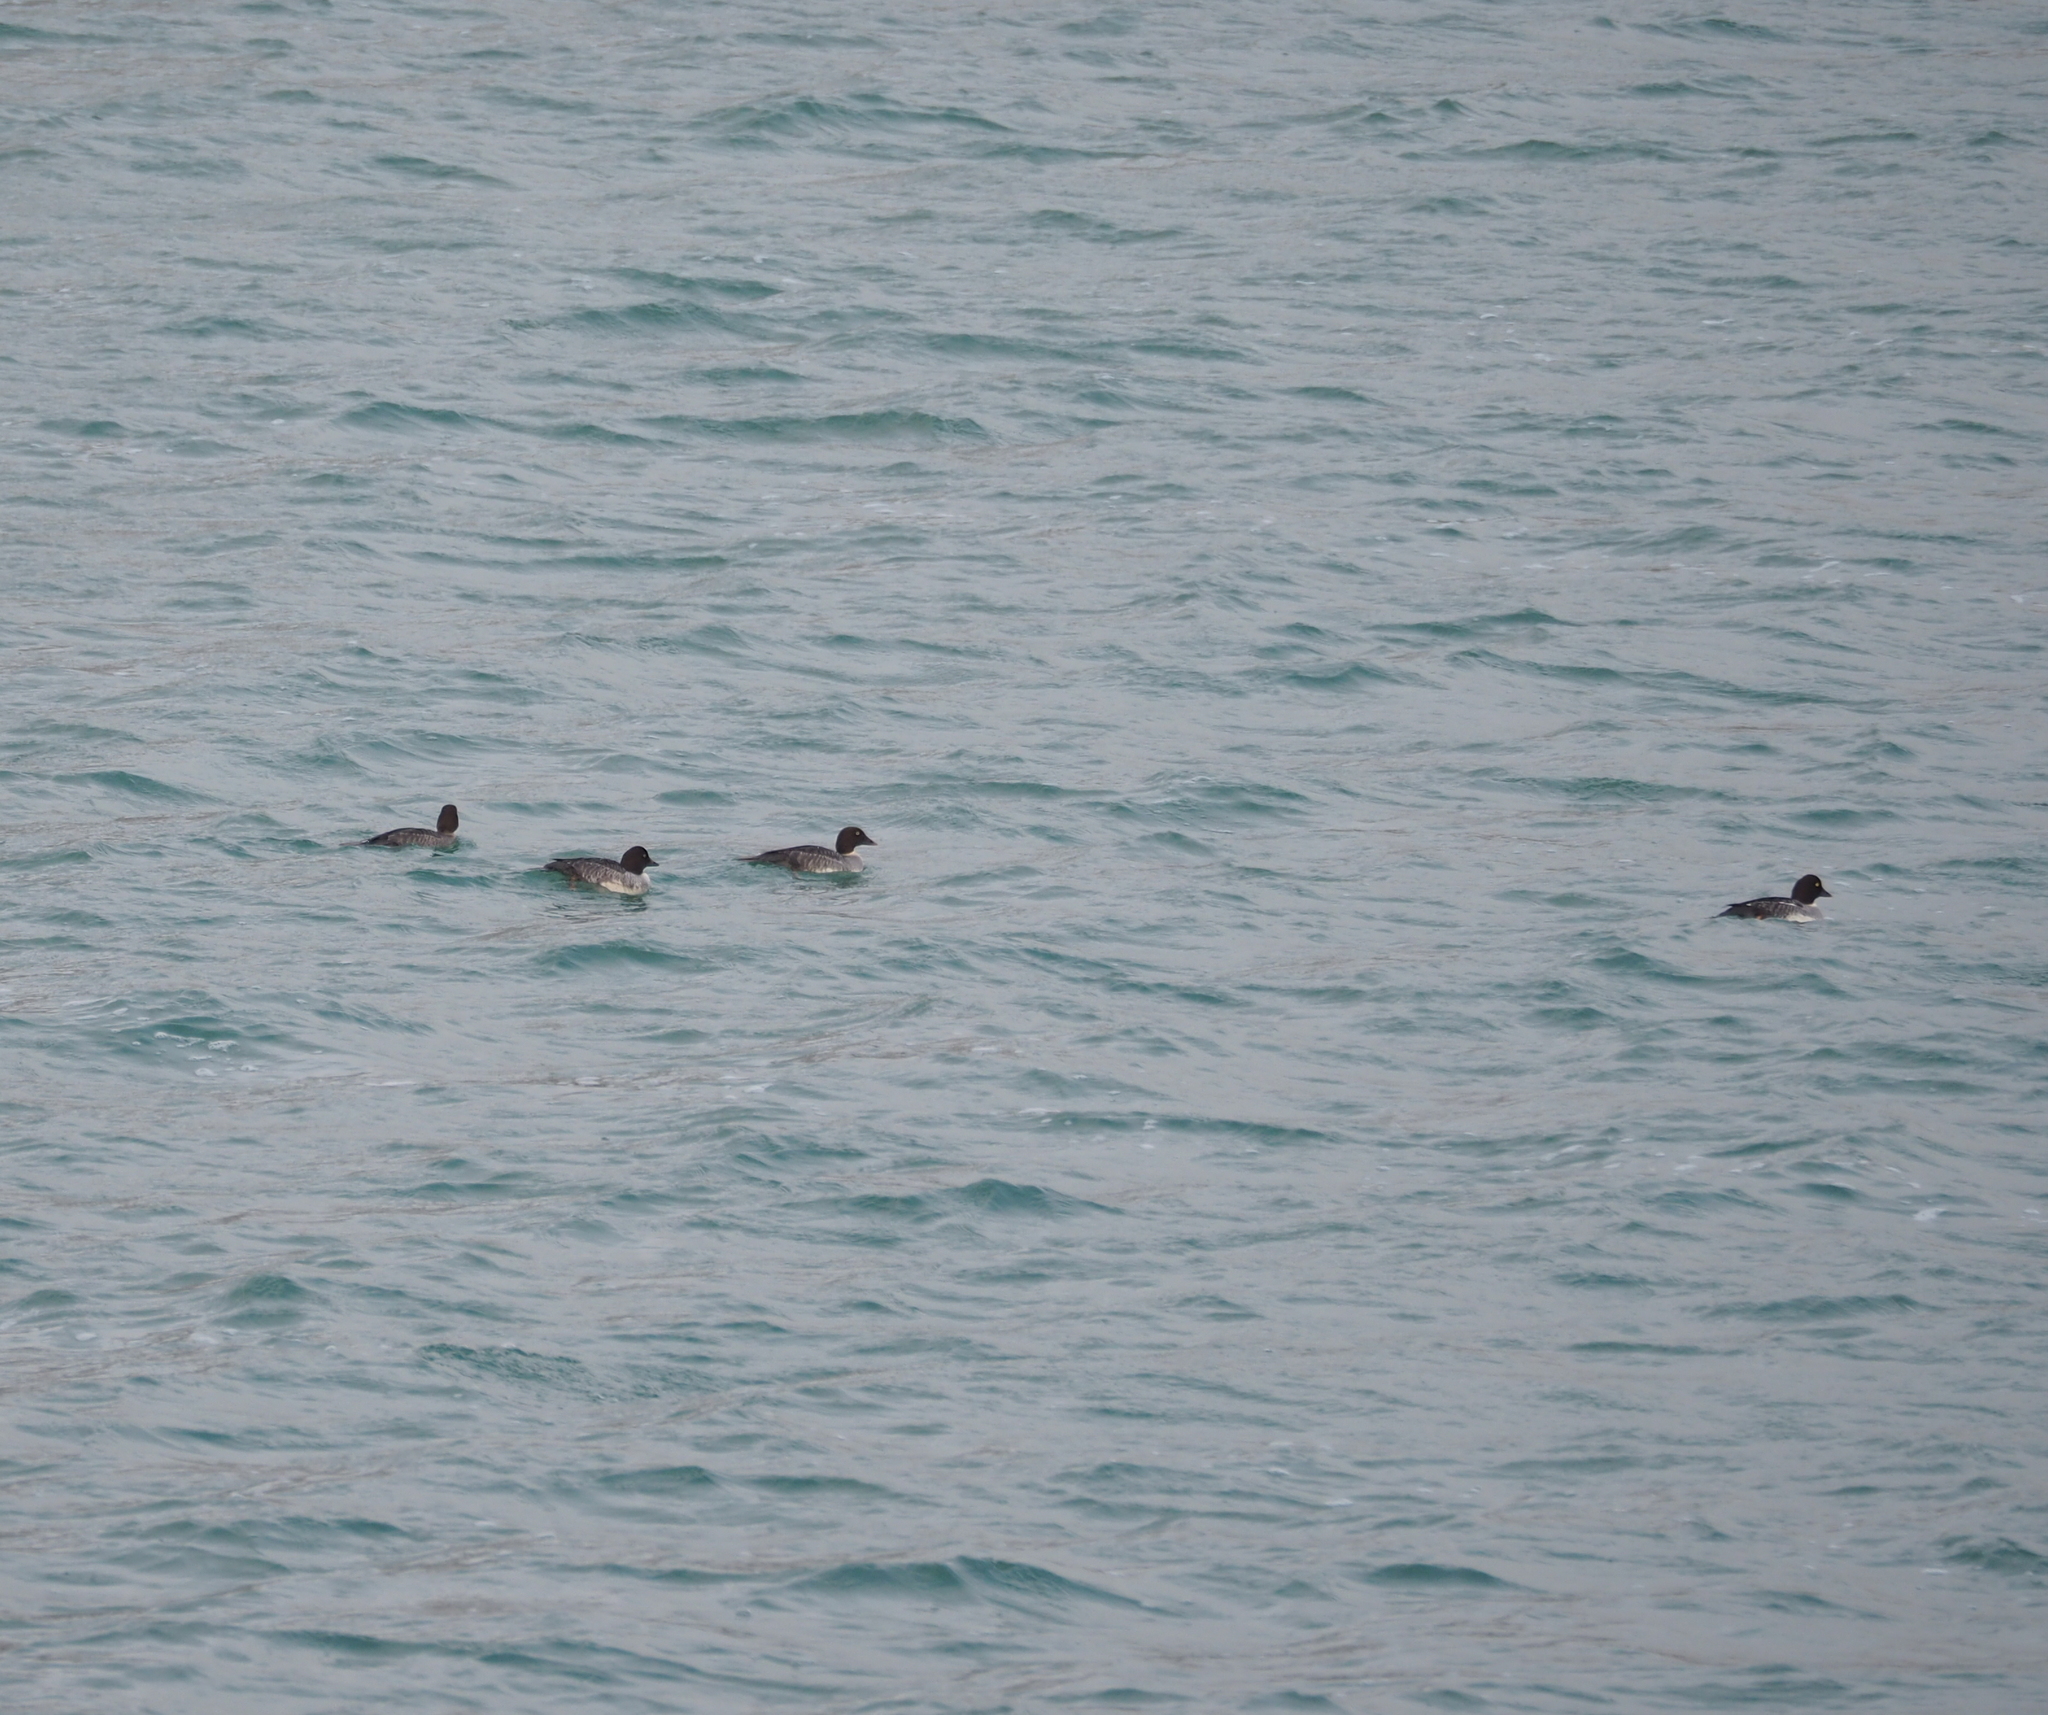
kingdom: Animalia
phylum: Chordata
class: Aves
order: Anseriformes
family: Anatidae
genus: Bucephala
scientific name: Bucephala clangula
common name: Common goldeneye
